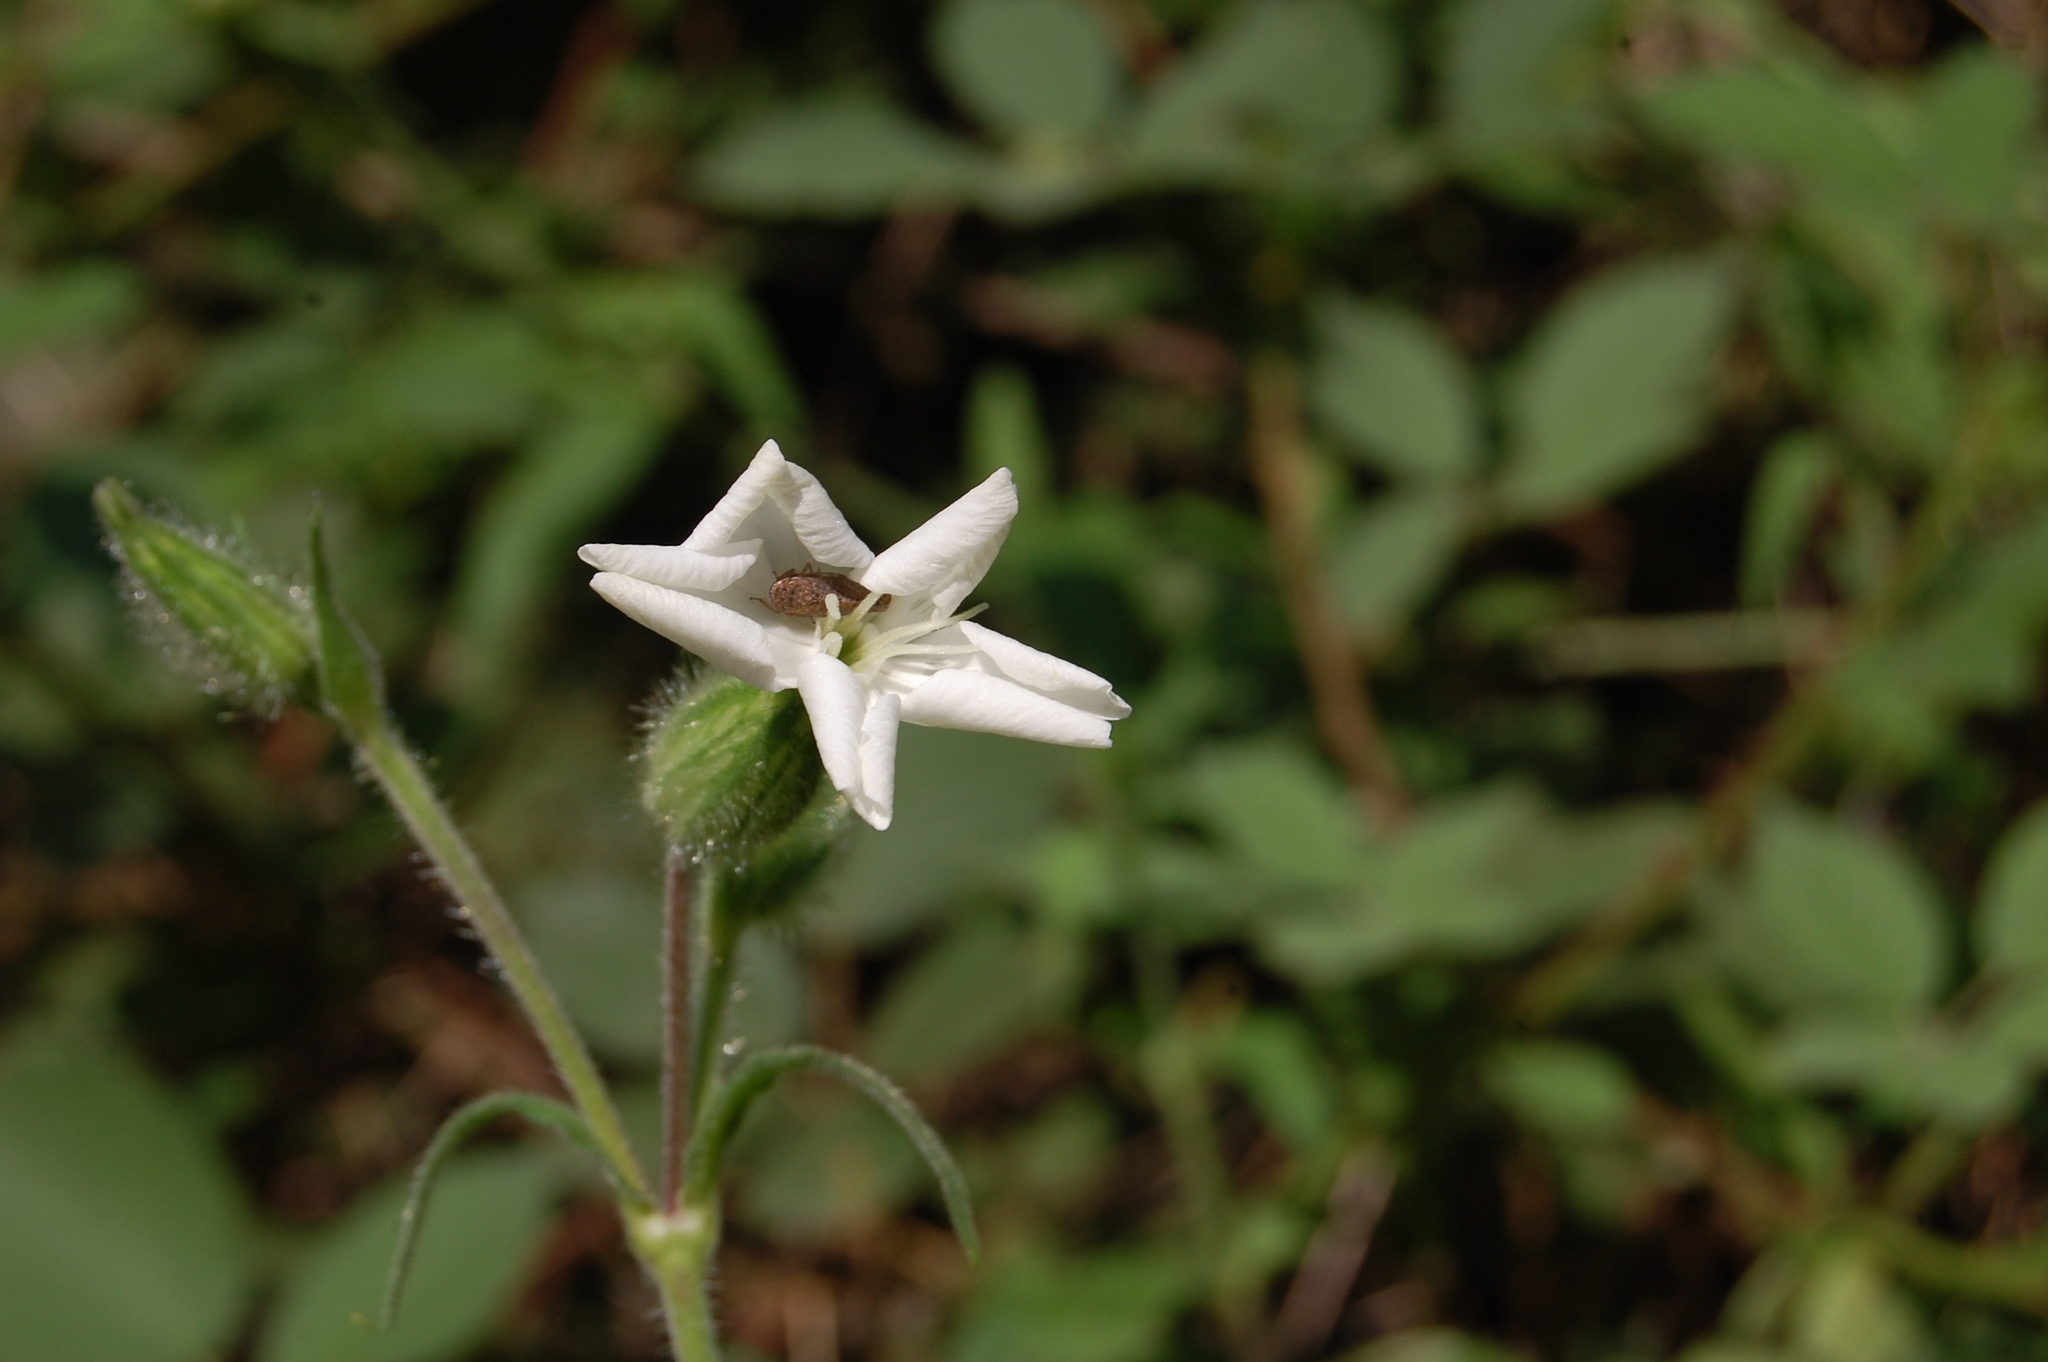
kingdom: Plantae
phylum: Tracheophyta
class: Magnoliopsida
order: Caryophyllales
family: Caryophyllaceae
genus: Silene
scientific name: Silene latifolia
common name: White campion
